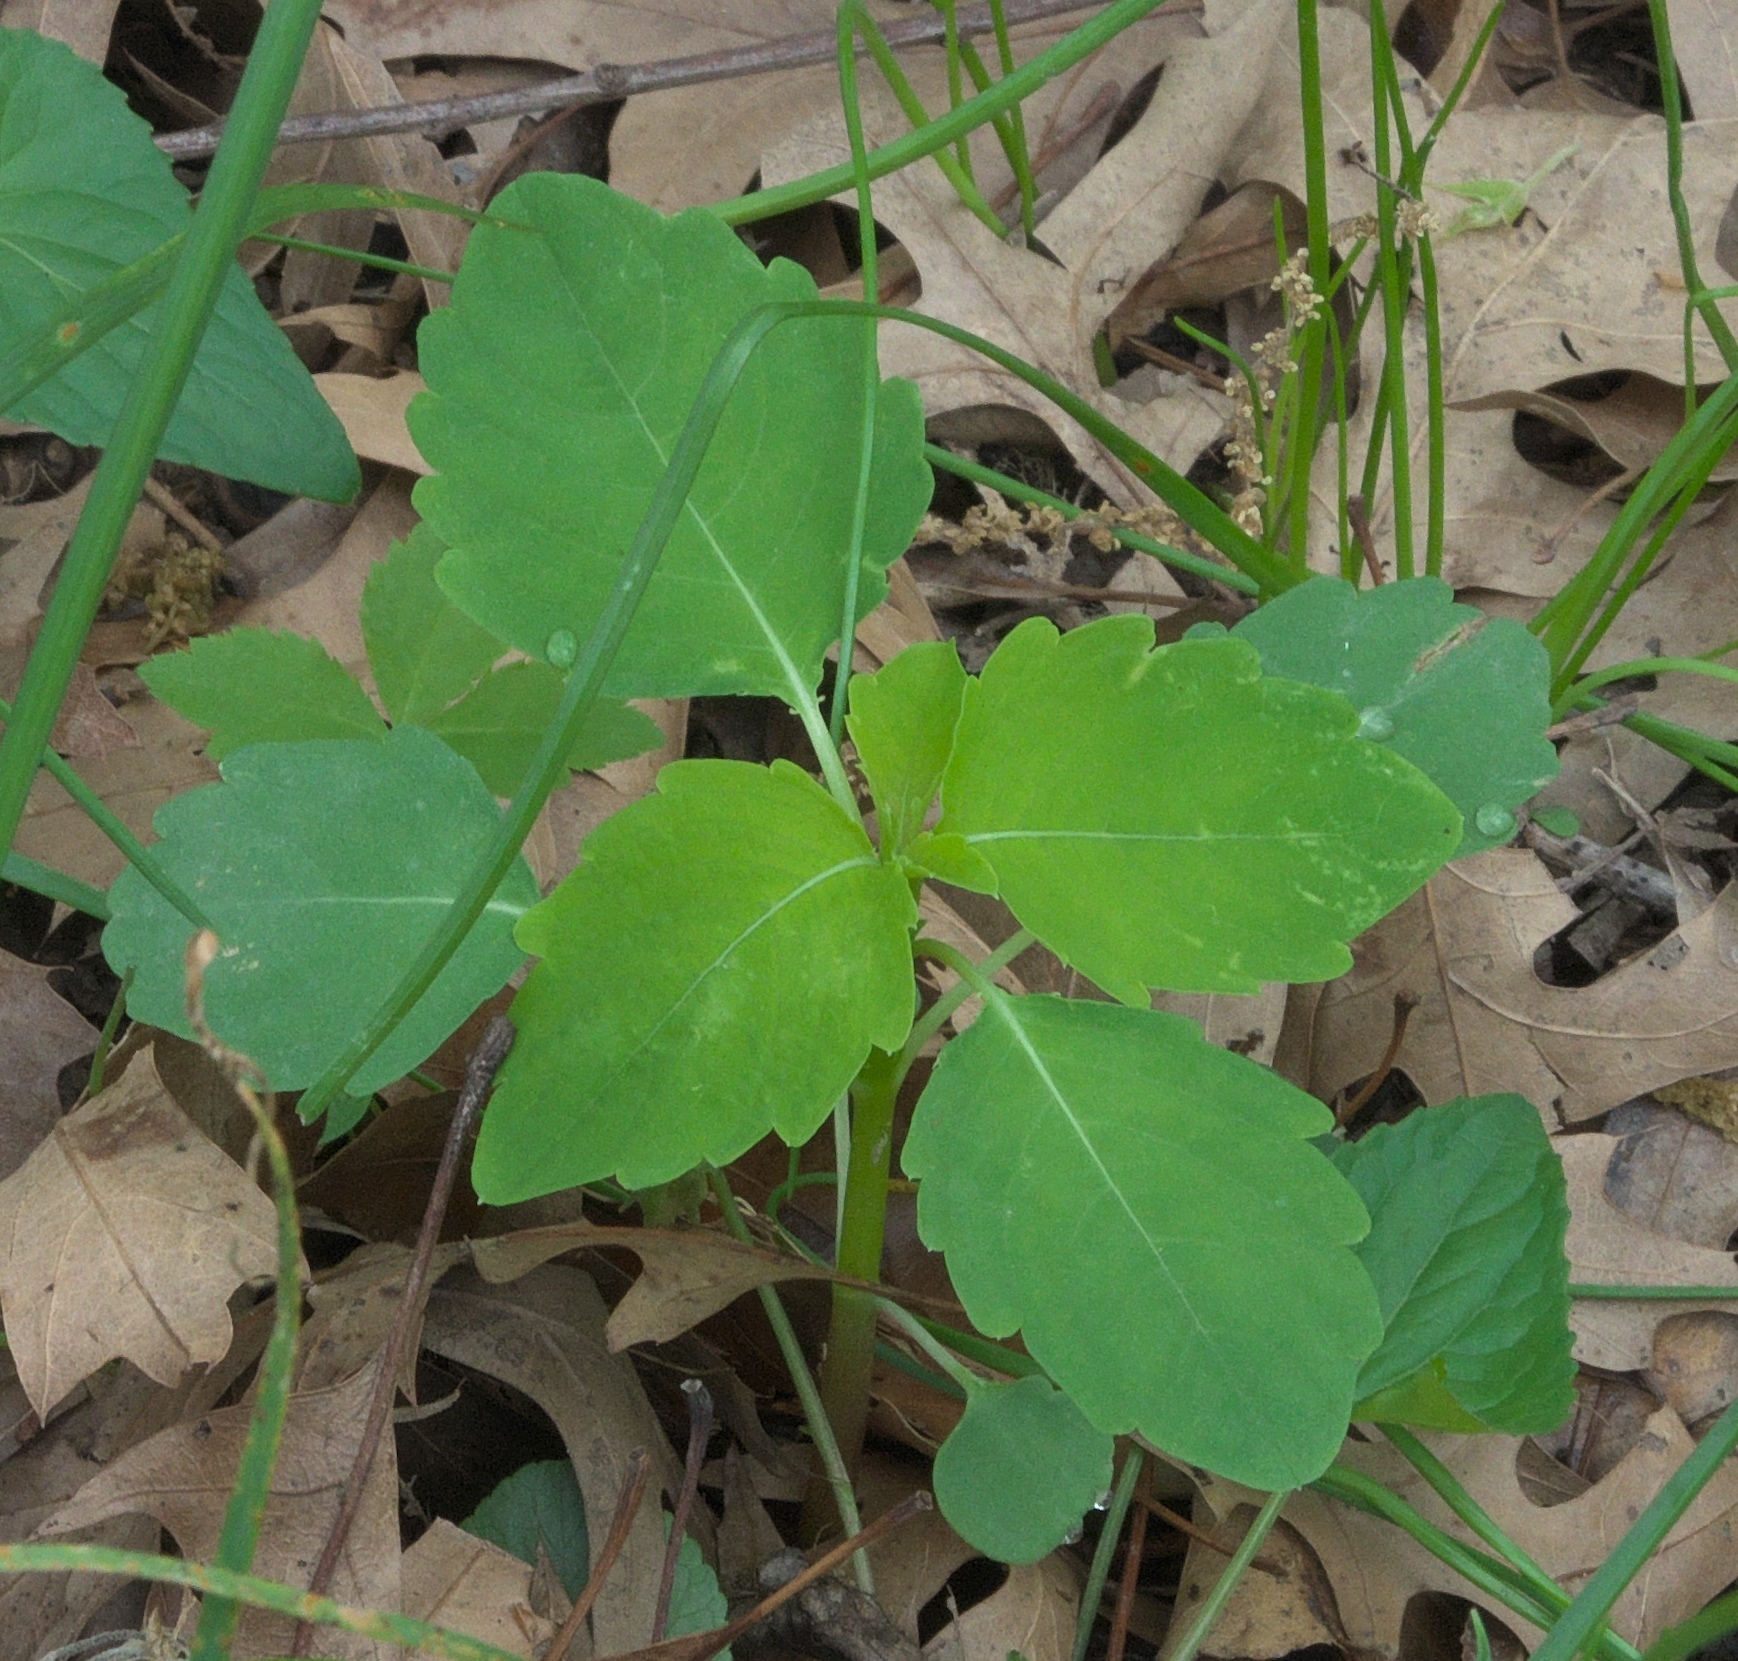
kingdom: Plantae
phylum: Tracheophyta
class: Magnoliopsida
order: Ericales
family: Balsaminaceae
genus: Impatiens
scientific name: Impatiens capensis
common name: Orange balsam
